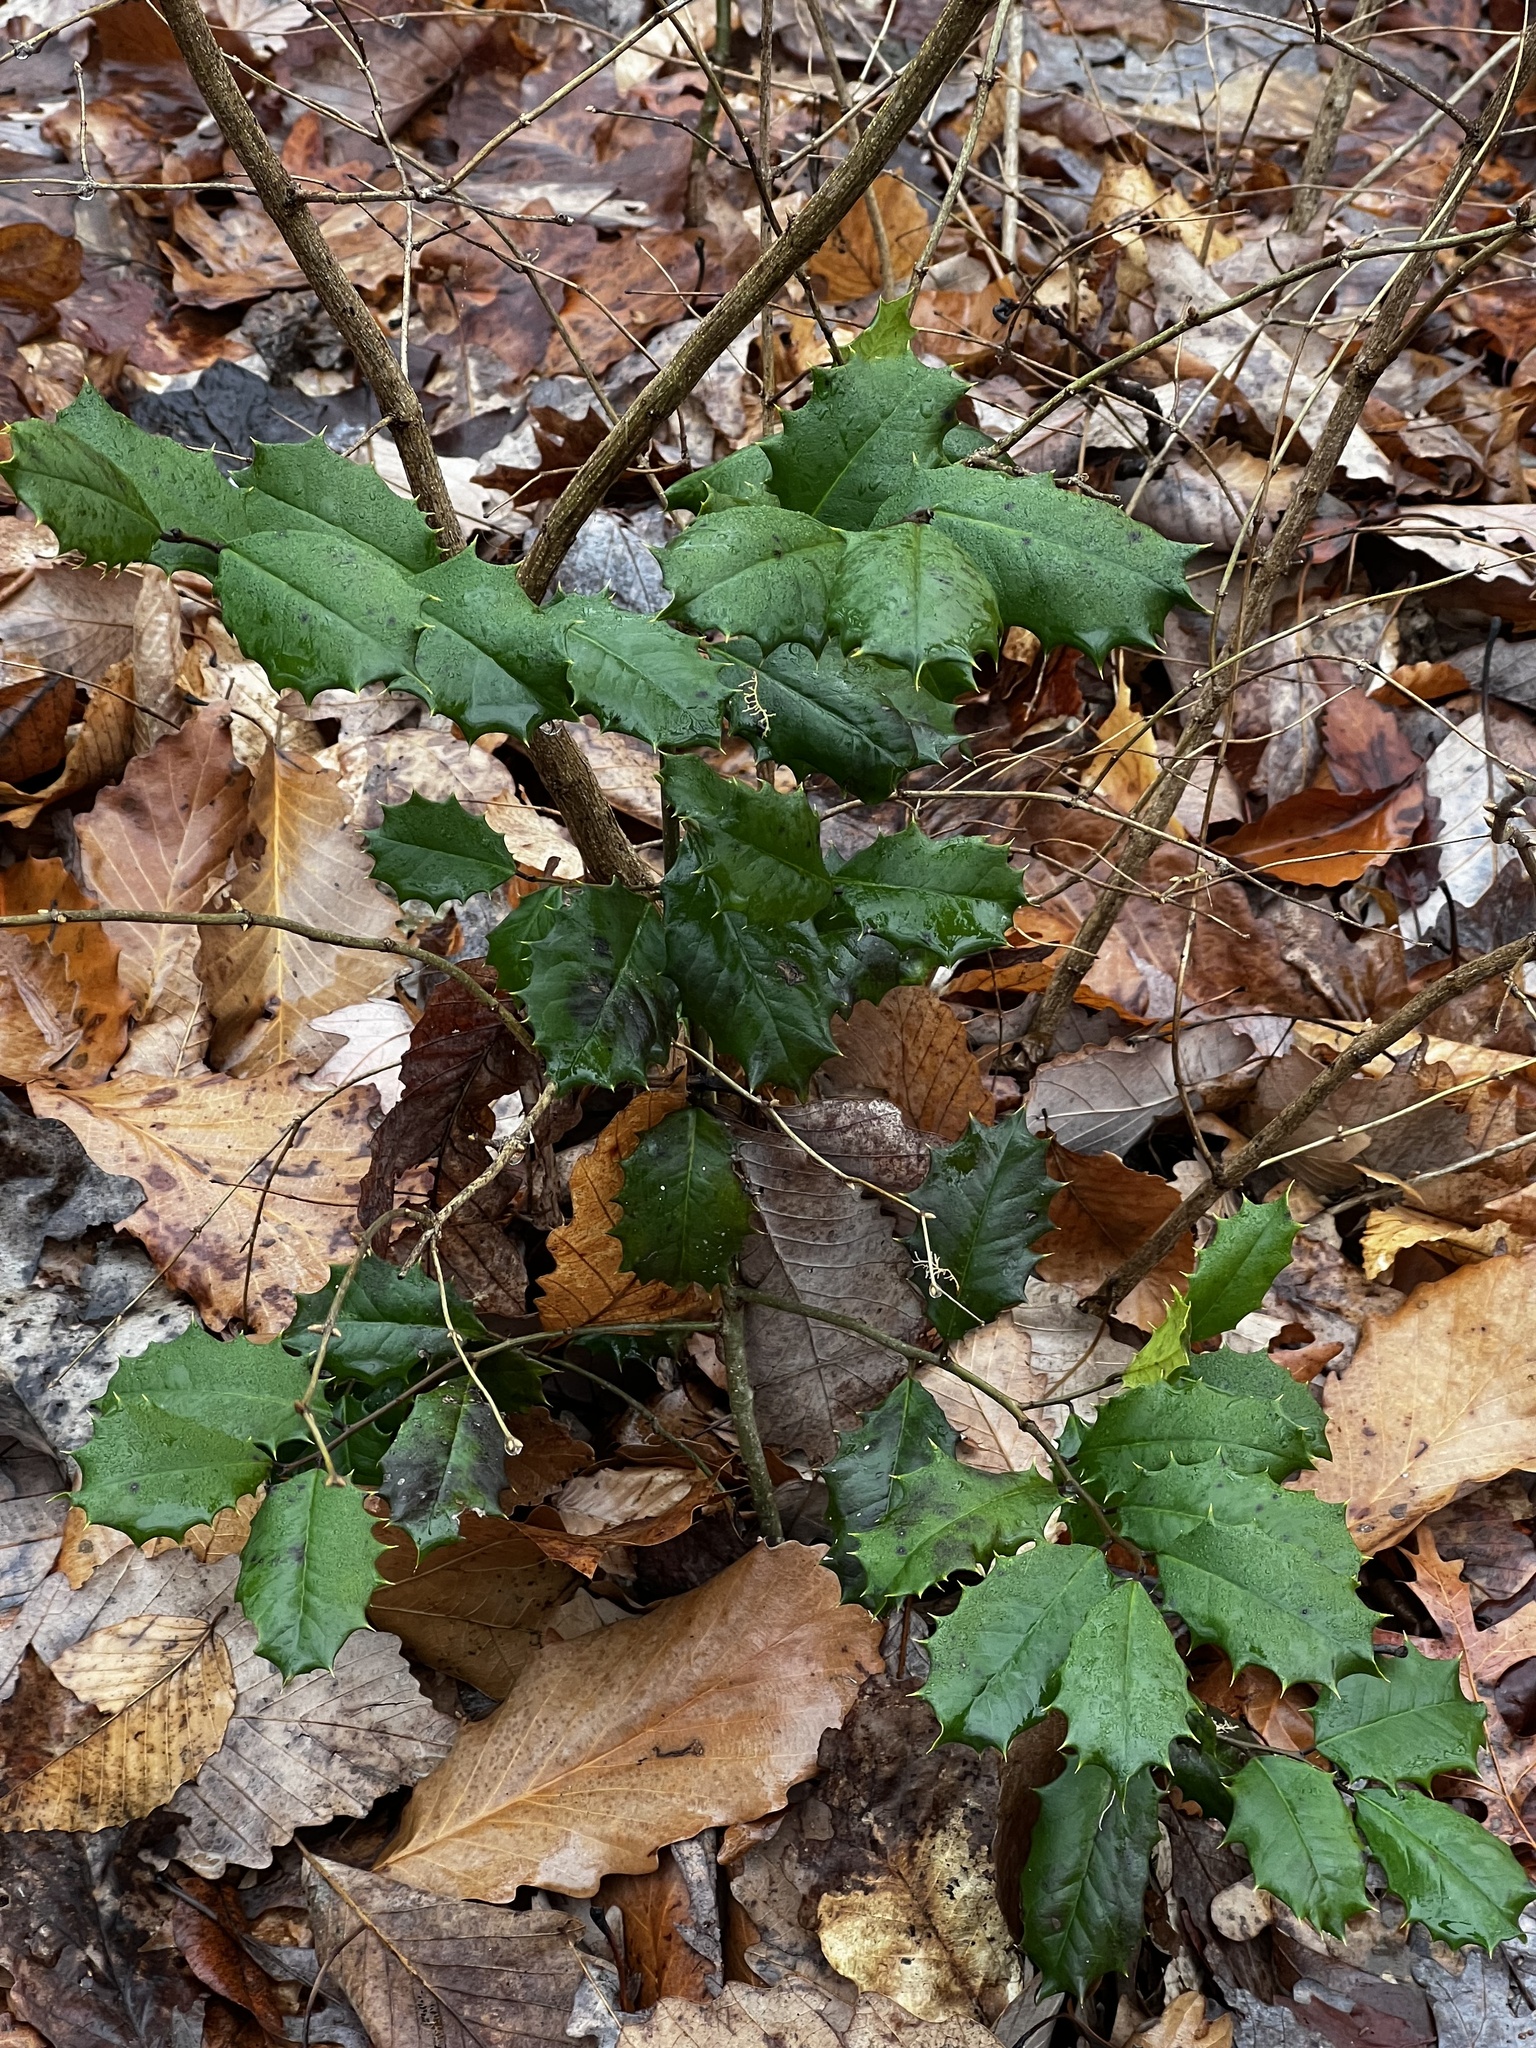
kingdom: Plantae
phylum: Tracheophyta
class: Magnoliopsida
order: Aquifoliales
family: Aquifoliaceae
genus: Ilex
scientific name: Ilex opaca
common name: American holly
